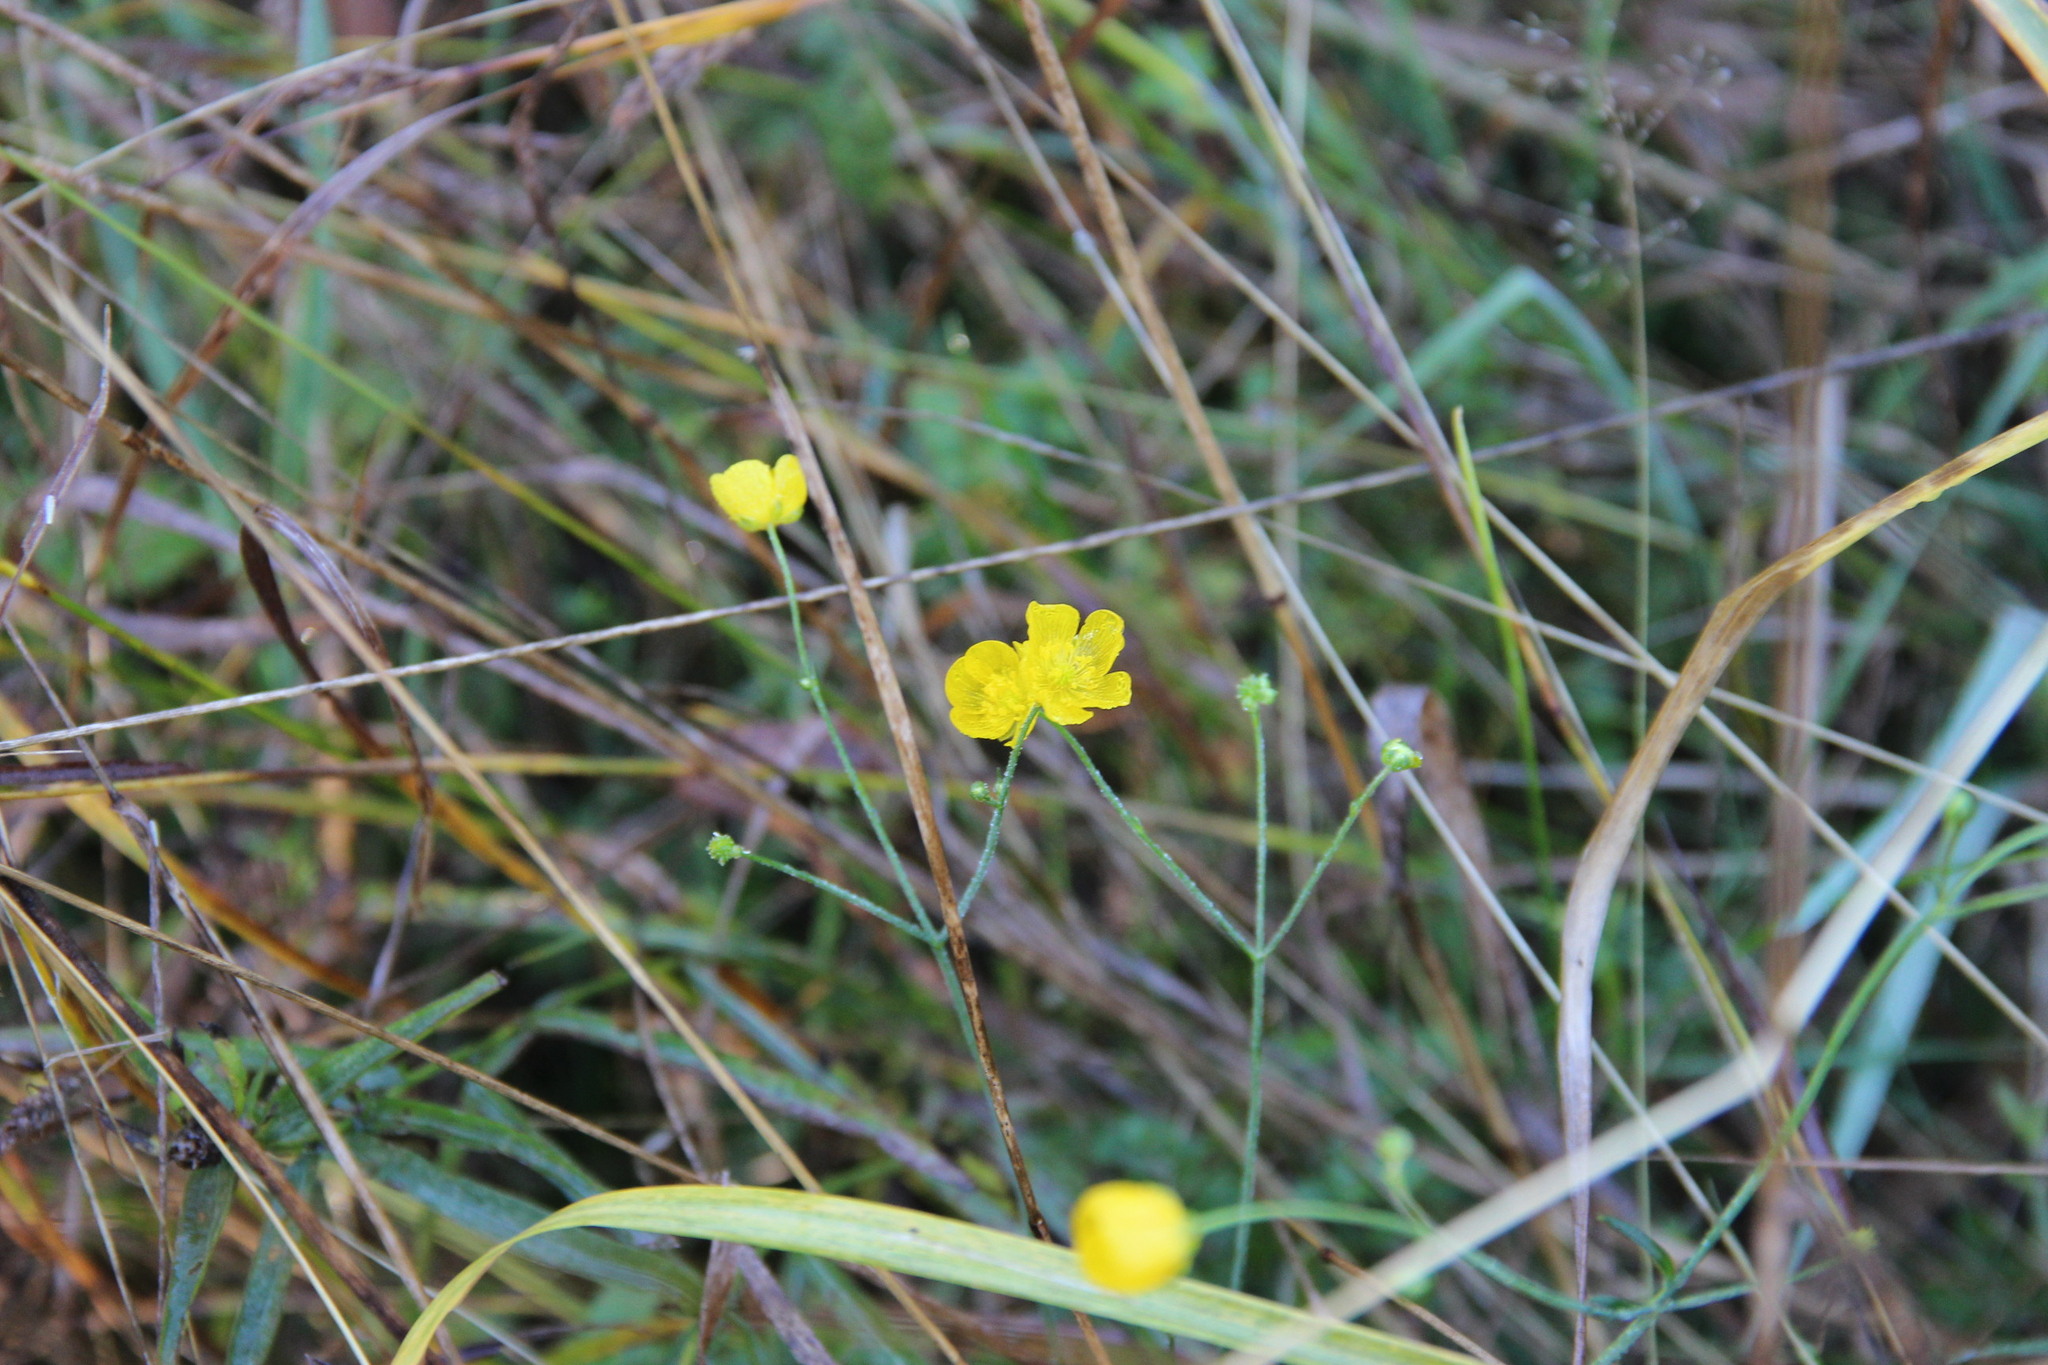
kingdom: Plantae
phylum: Tracheophyta
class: Magnoliopsida
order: Ranunculales
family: Ranunculaceae
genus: Ranunculus
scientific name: Ranunculus acris
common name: Meadow buttercup
